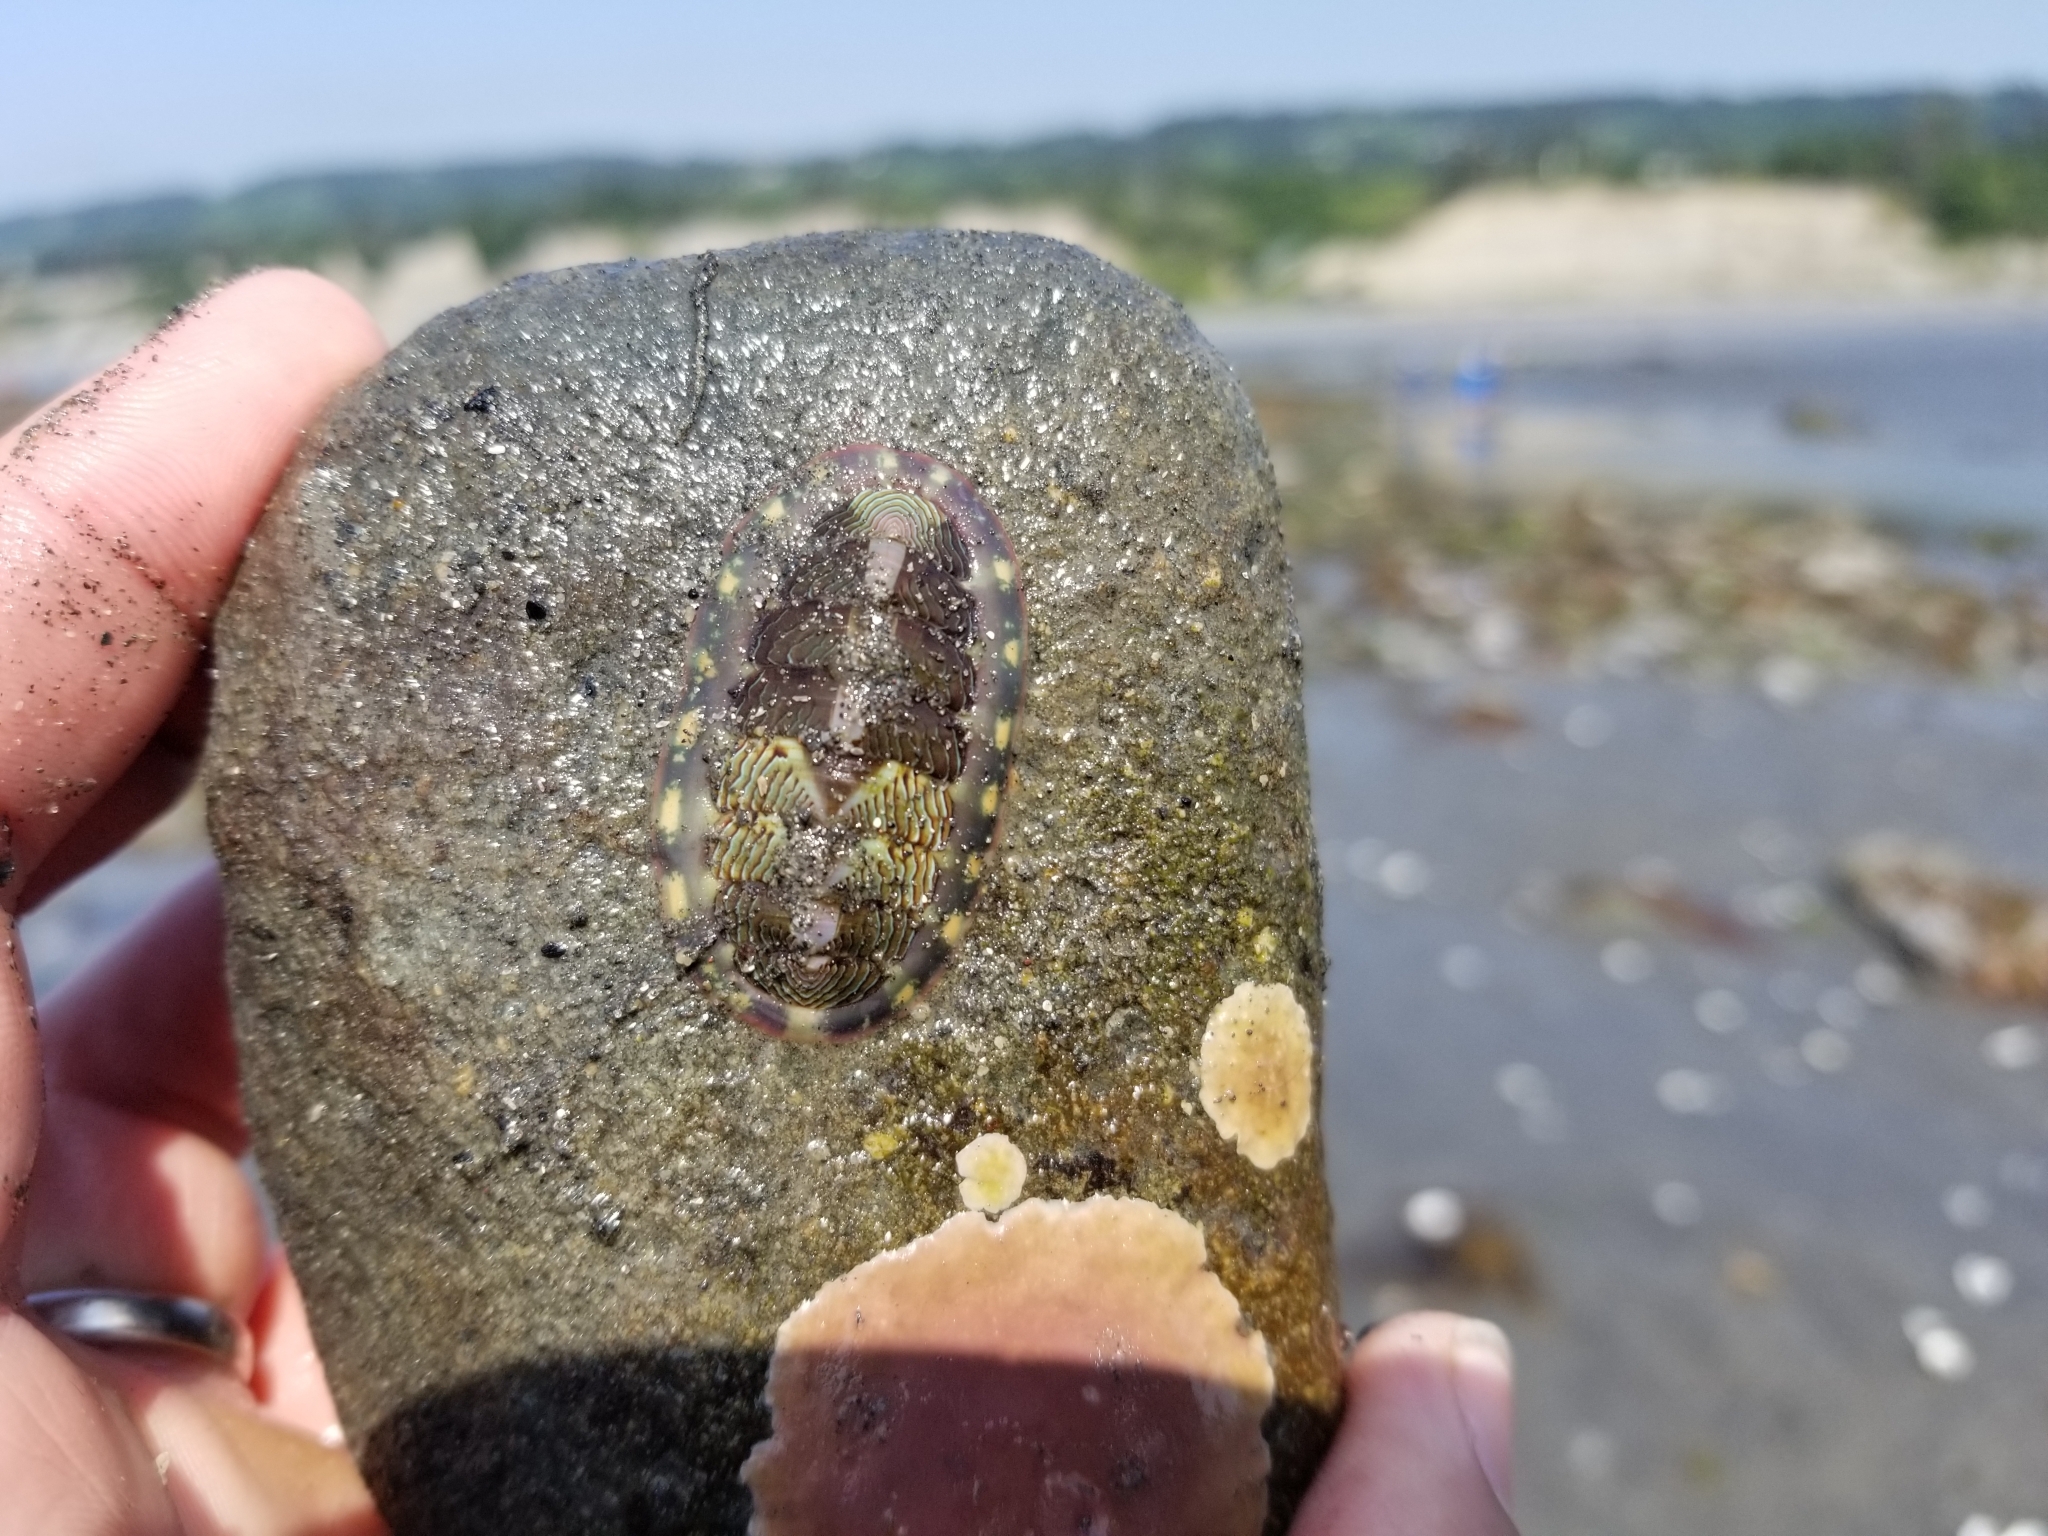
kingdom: Animalia
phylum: Mollusca
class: Polyplacophora
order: Chitonida
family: Tonicellidae
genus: Tonicella
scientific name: Tonicella lineata
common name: Lined chiton
